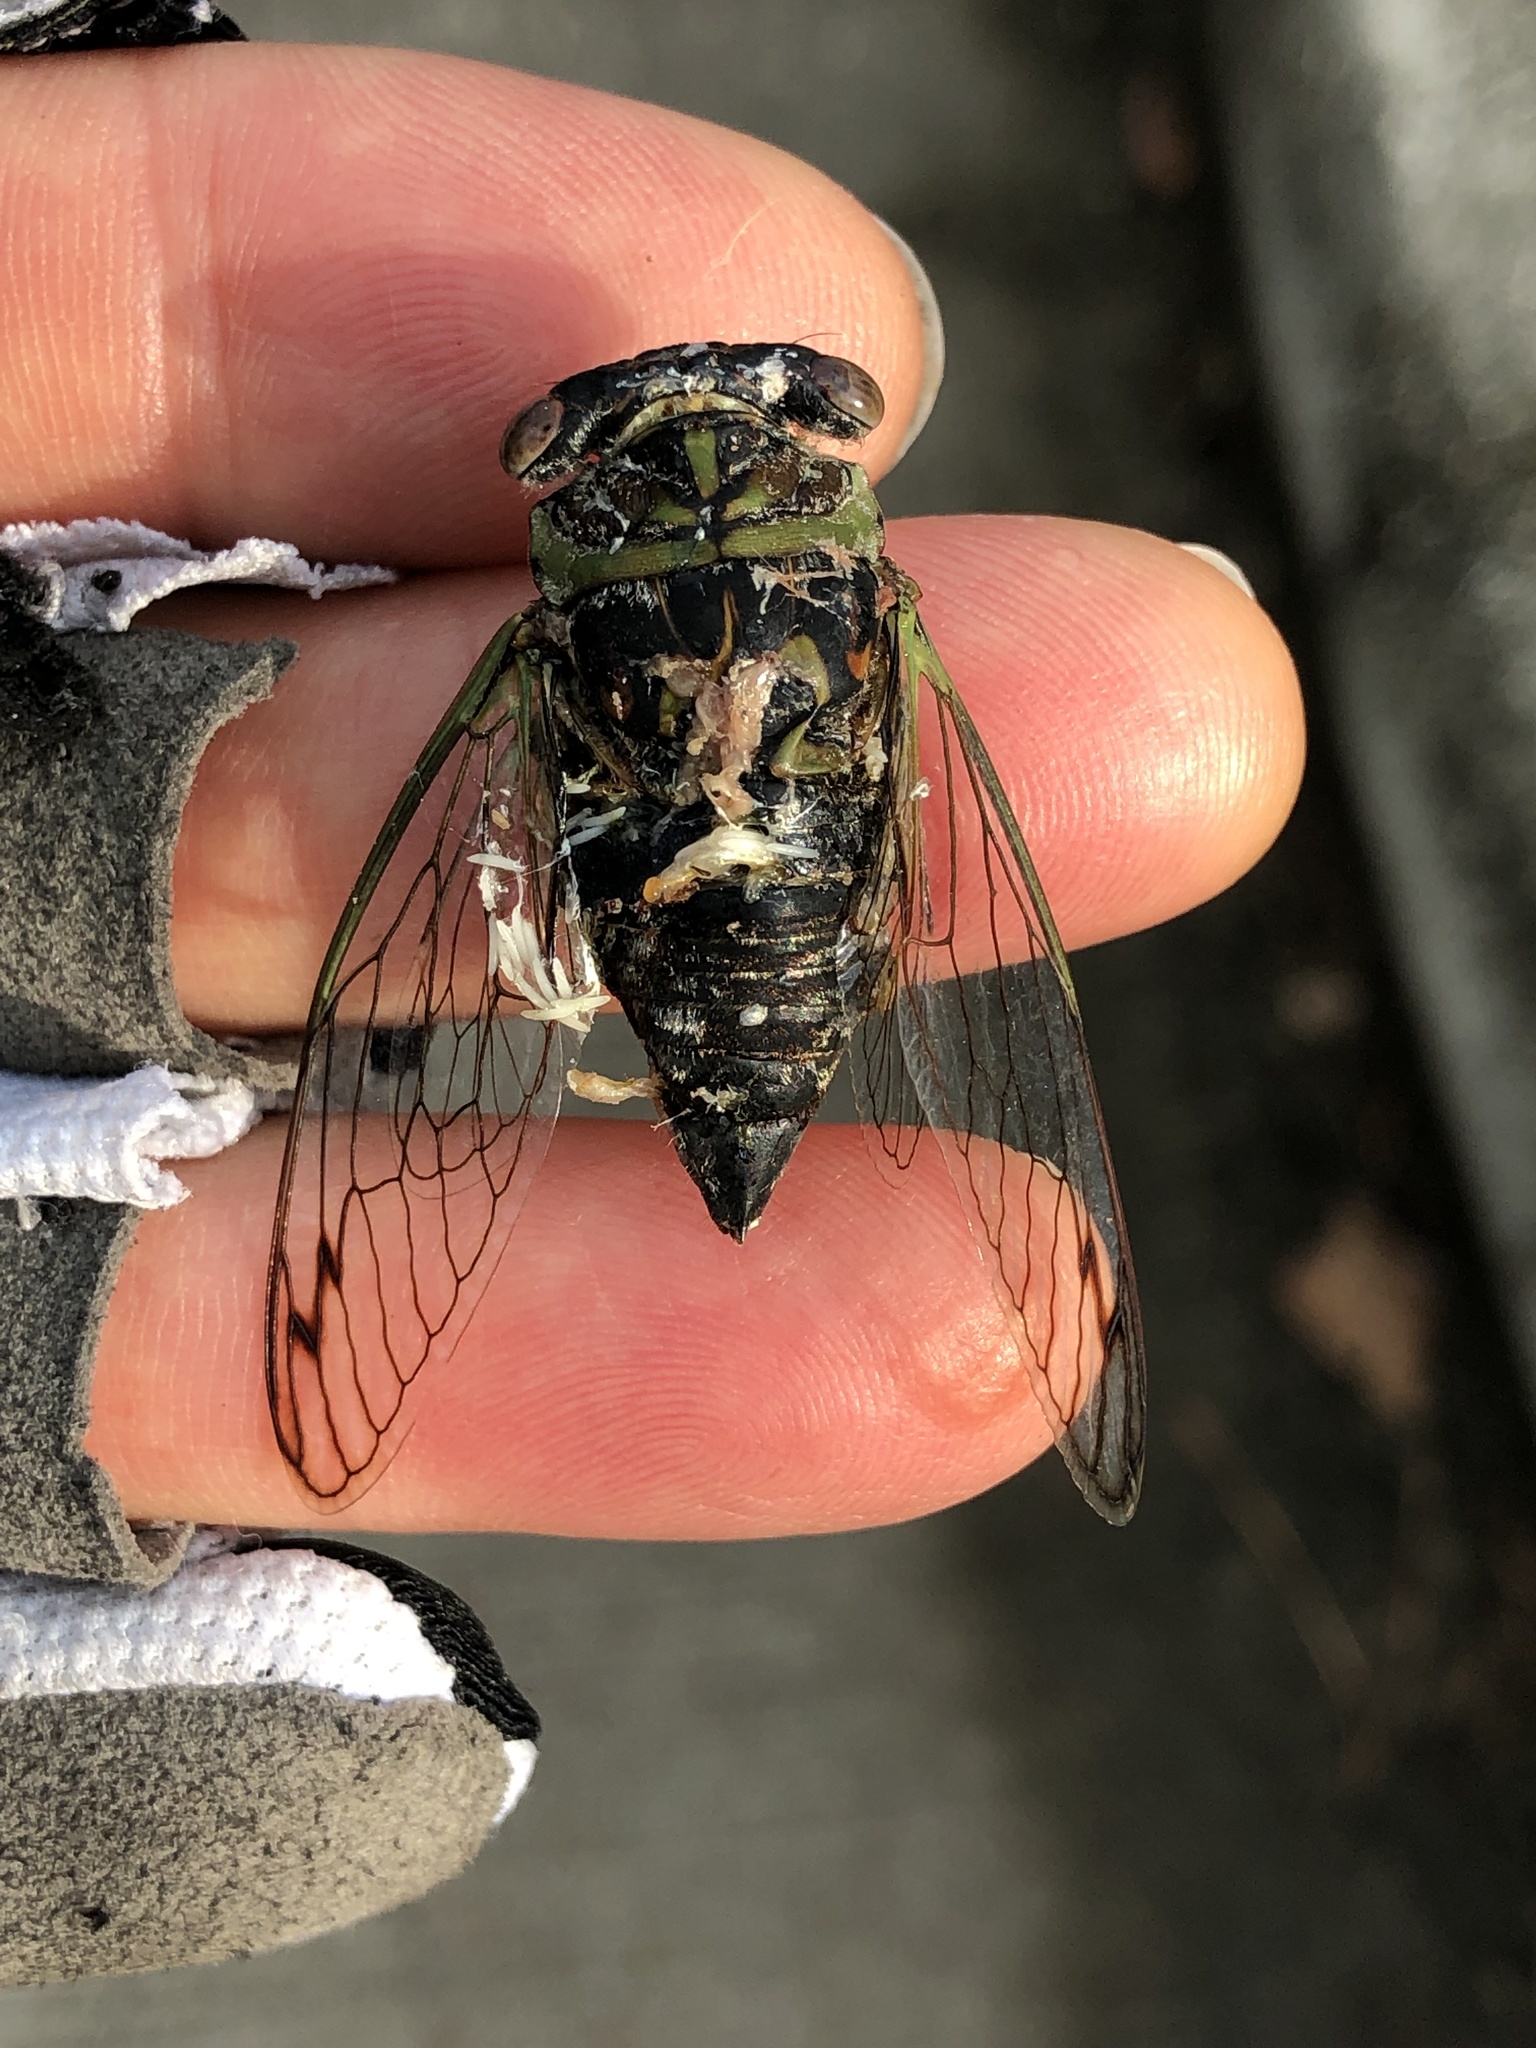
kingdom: Animalia
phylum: Arthropoda
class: Insecta
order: Hemiptera
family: Cicadidae
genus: Neotibicen
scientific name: Neotibicen davisi
